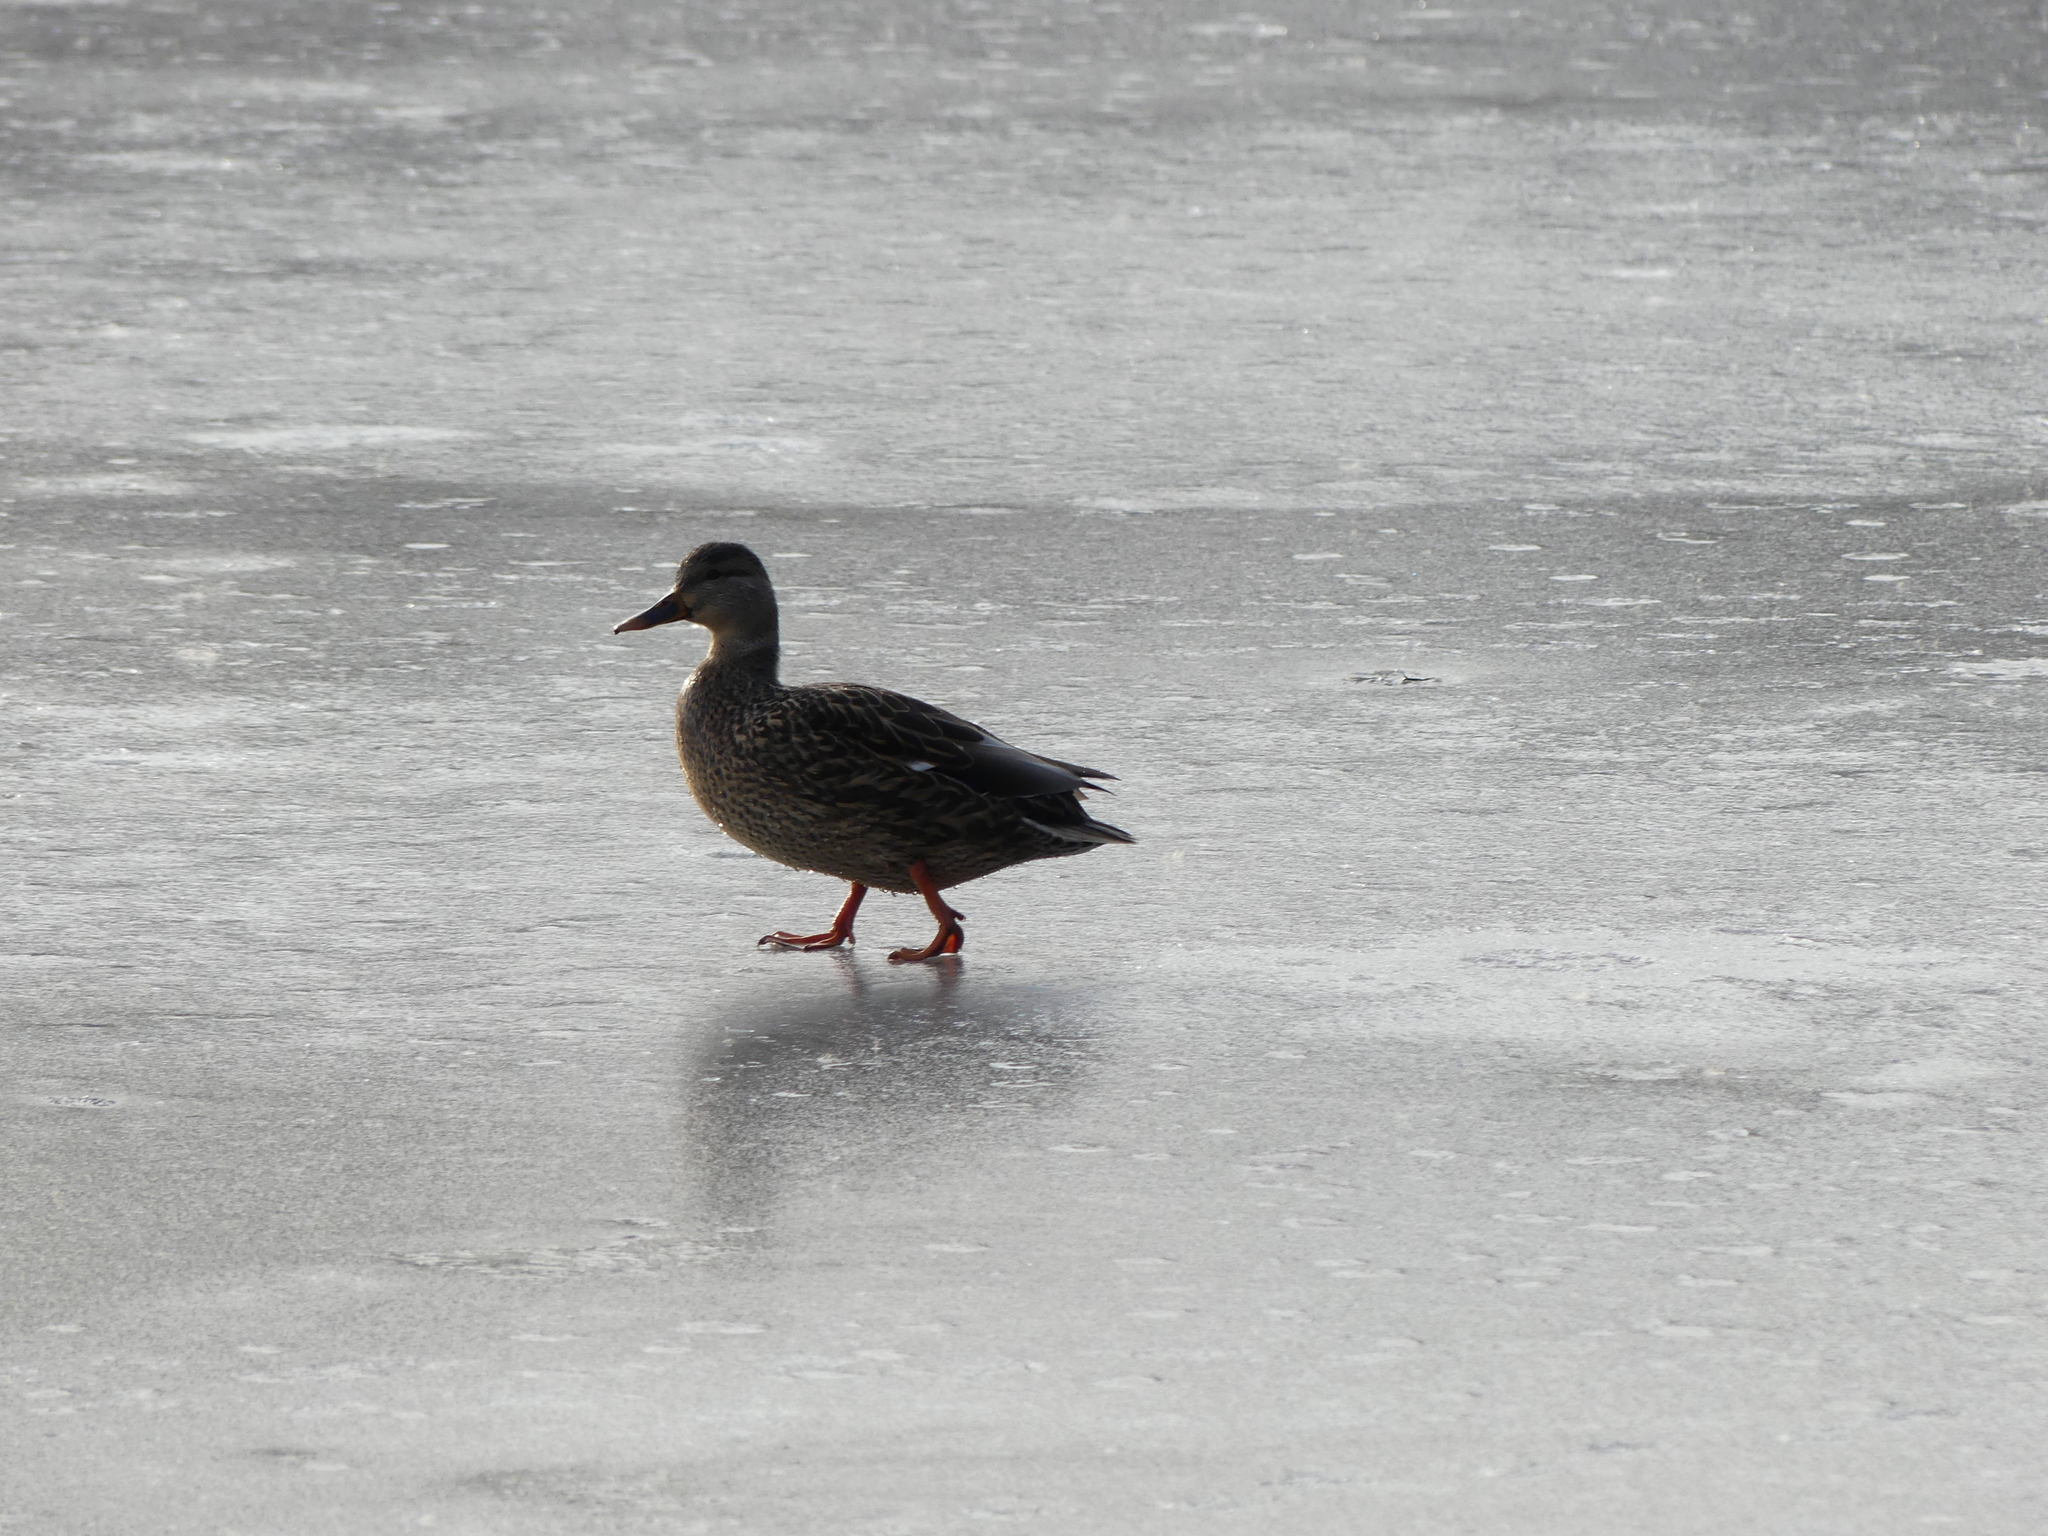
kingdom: Animalia
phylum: Chordata
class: Aves
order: Anseriformes
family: Anatidae
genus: Anas
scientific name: Anas platyrhynchos
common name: Mallard
